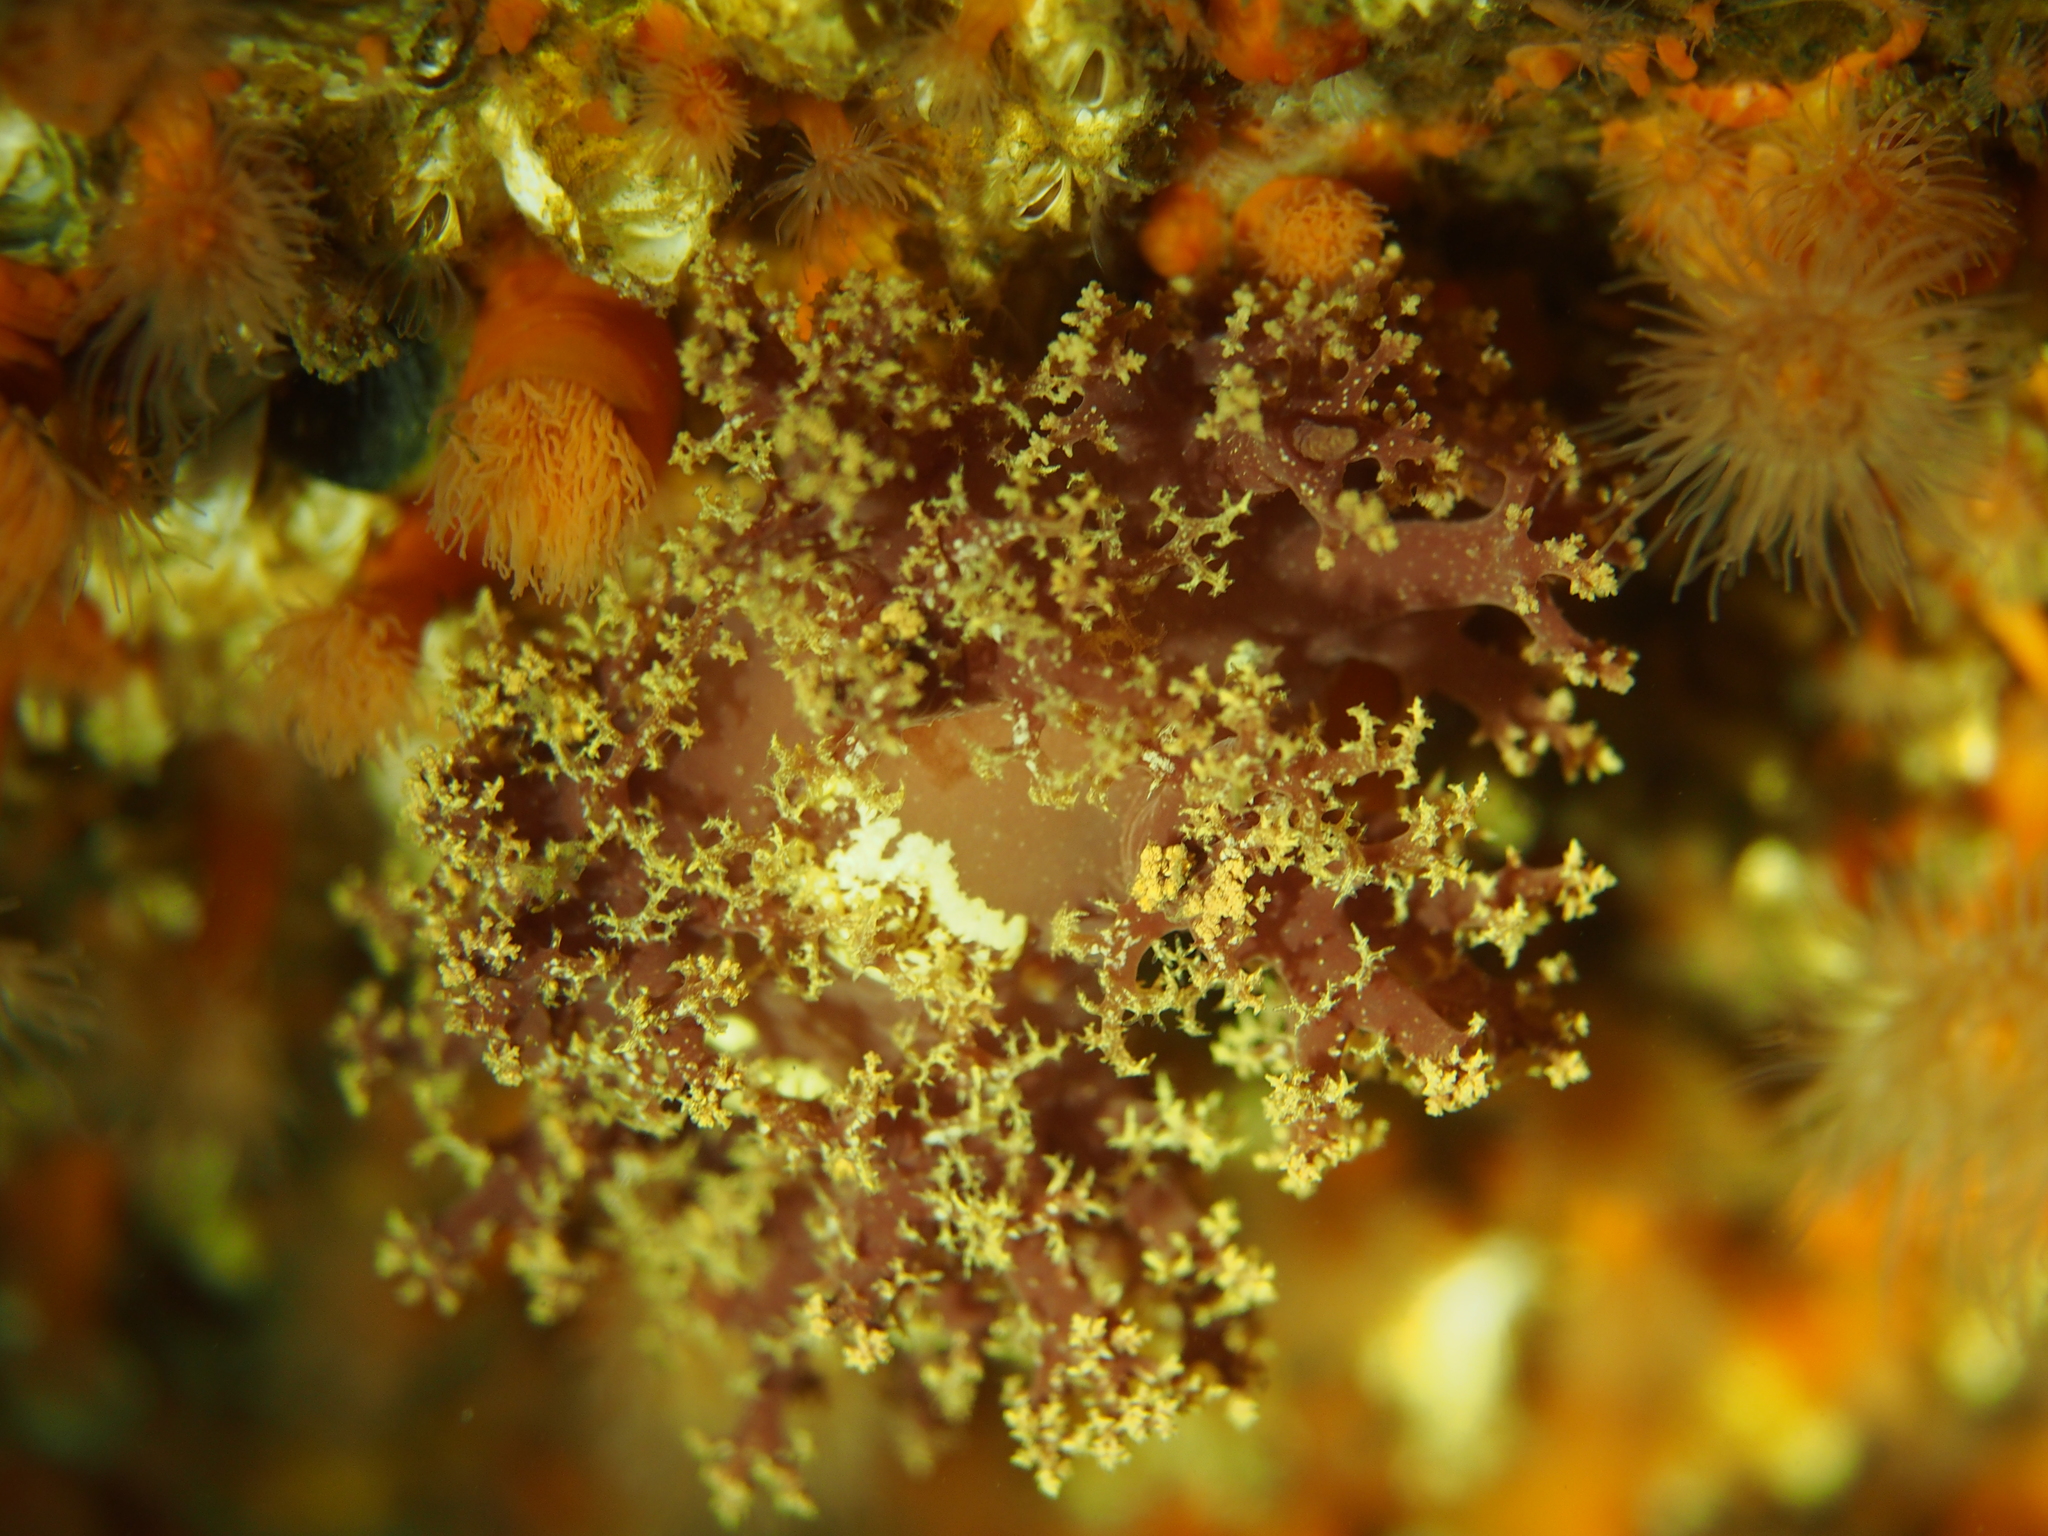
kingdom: Animalia
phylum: Mollusca
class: Gastropoda
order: Nudibranchia
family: Dendronotidae
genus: Dendronotus
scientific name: Dendronotus lacteus
